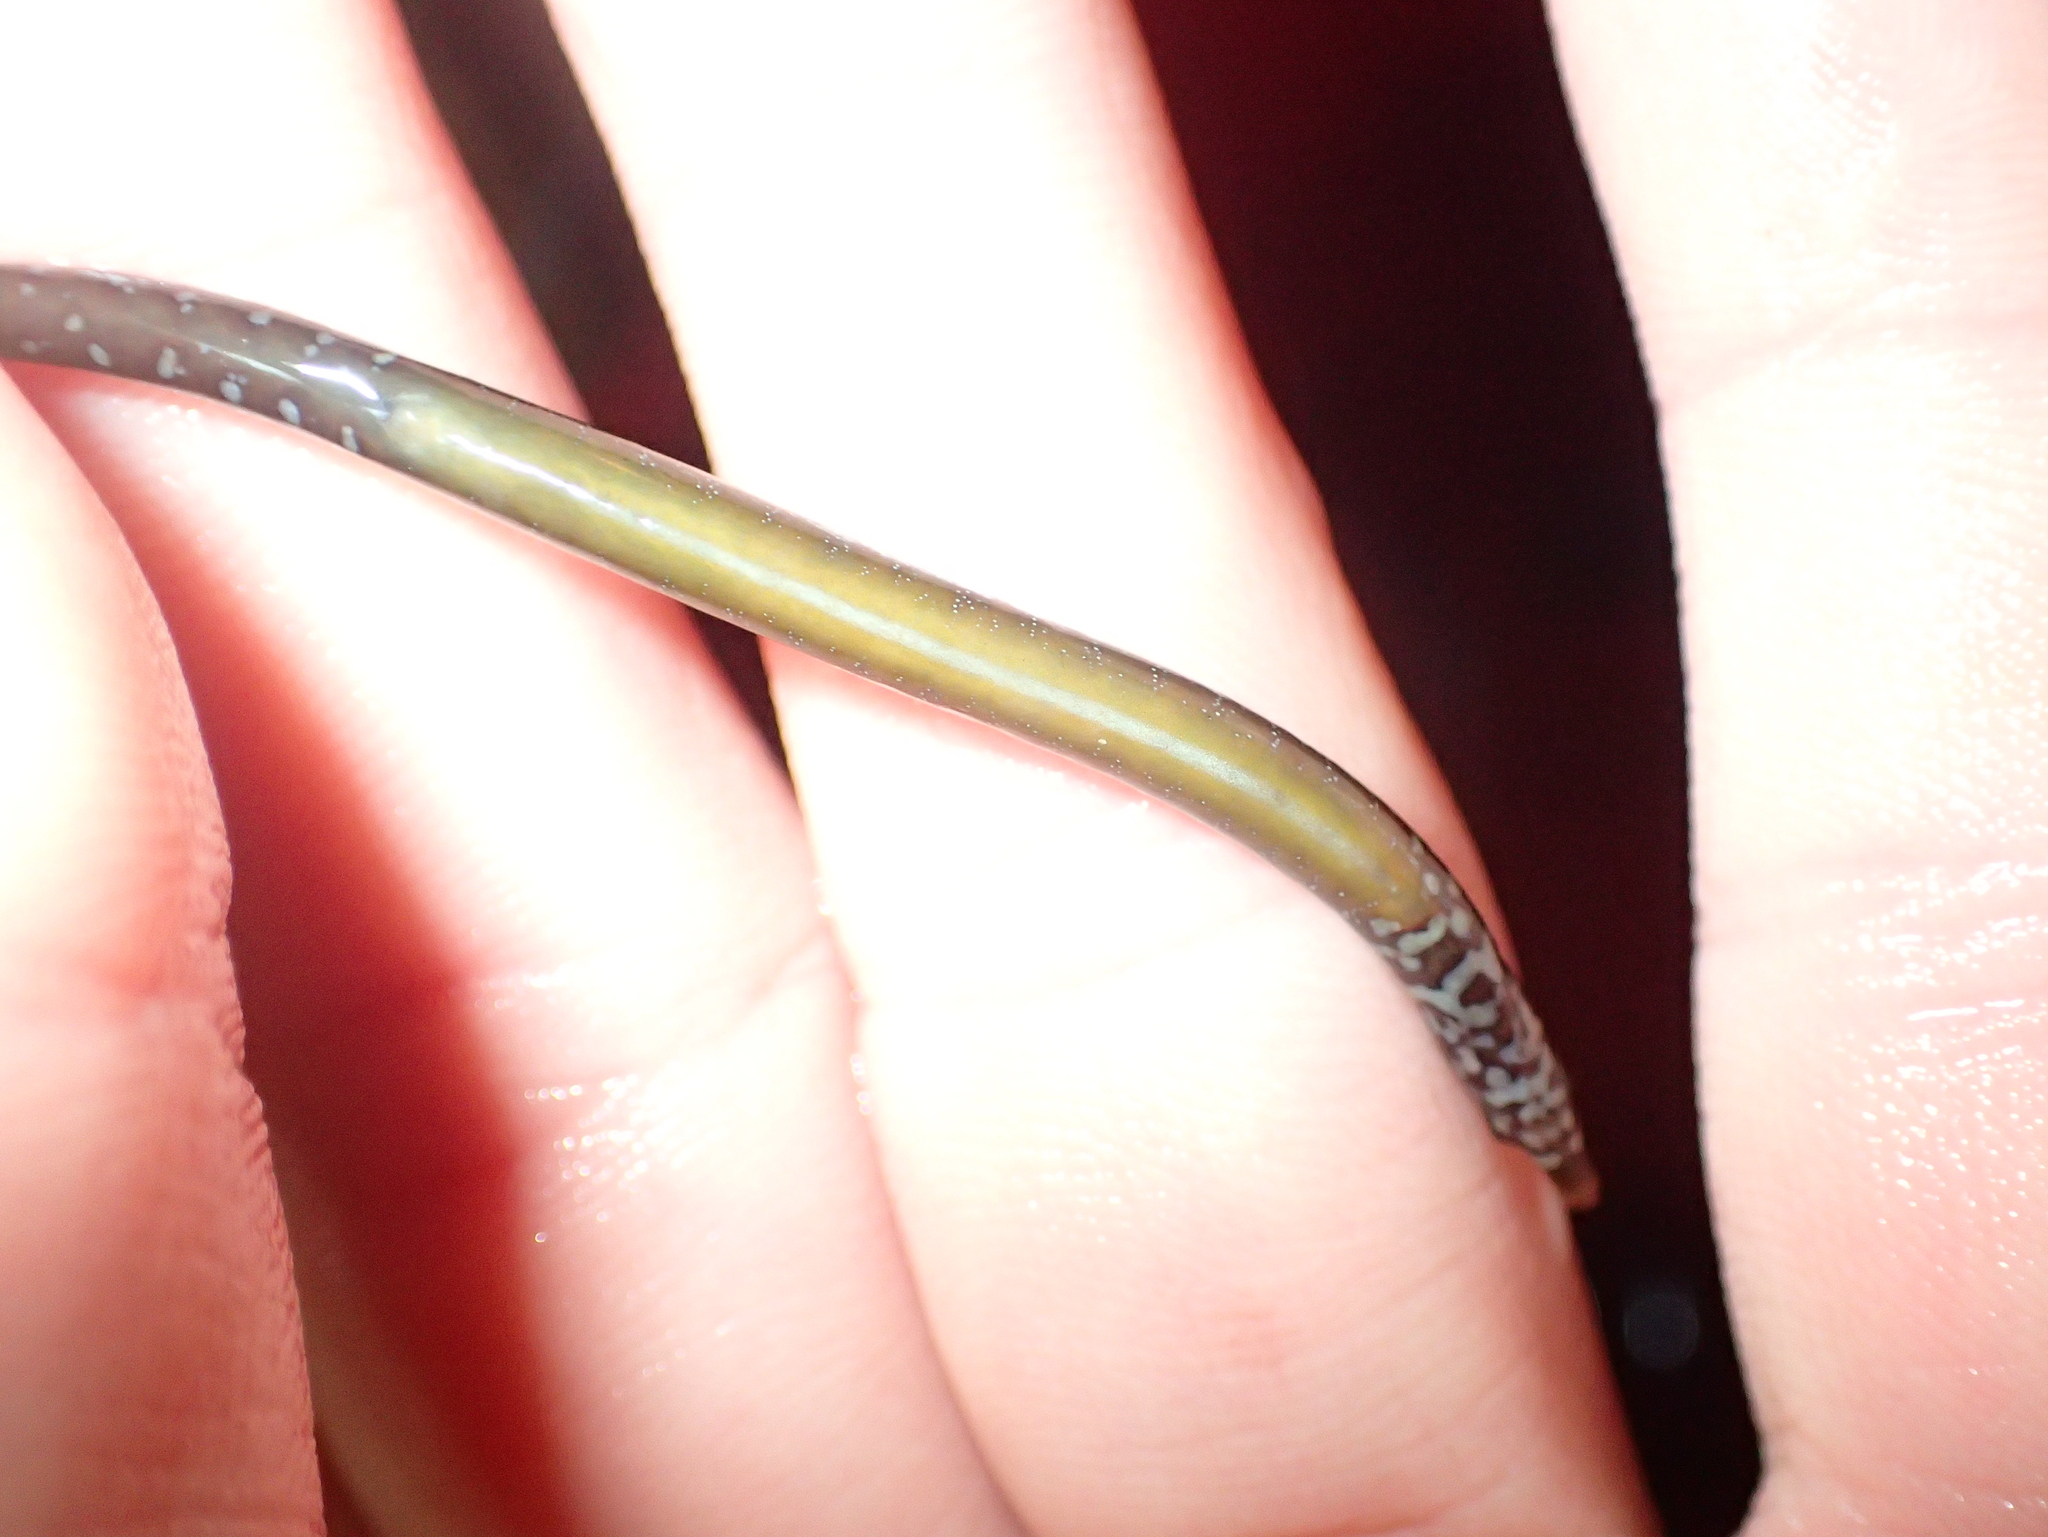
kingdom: Animalia
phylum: Chordata
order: Syngnathiformes
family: Syngnathidae
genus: Nerophis
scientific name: Nerophis lumbriciformis
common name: Worm pipefish
